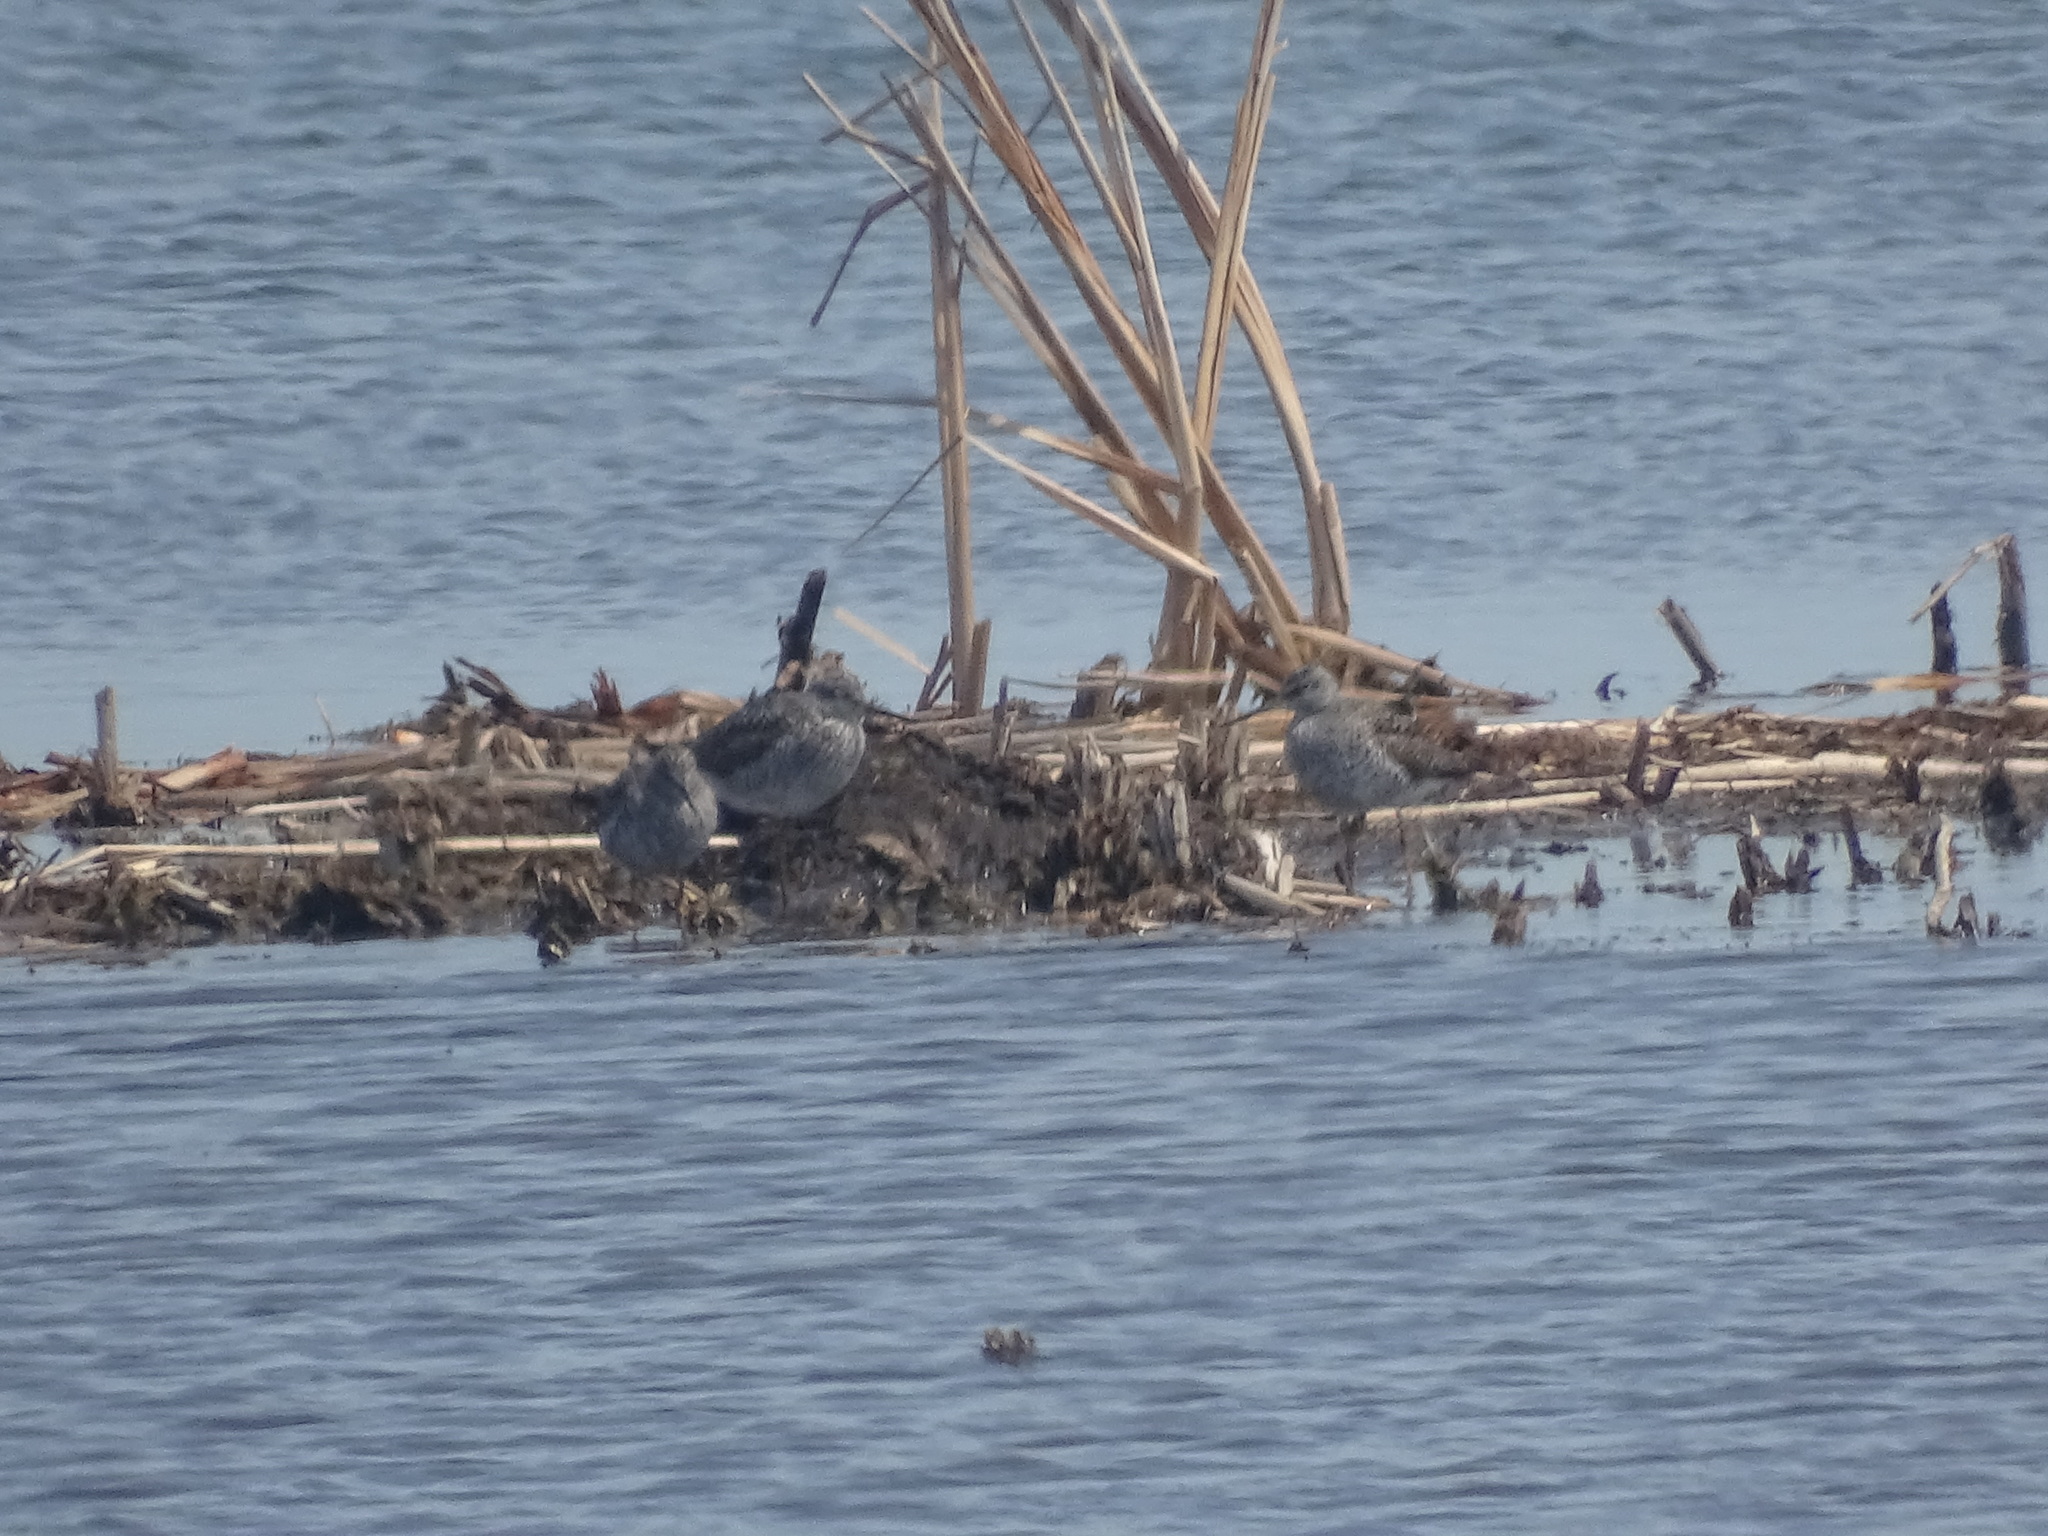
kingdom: Animalia
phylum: Chordata
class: Aves
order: Charadriiformes
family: Scolopacidae
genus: Tringa
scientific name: Tringa melanoleuca
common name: Greater yellowlegs
